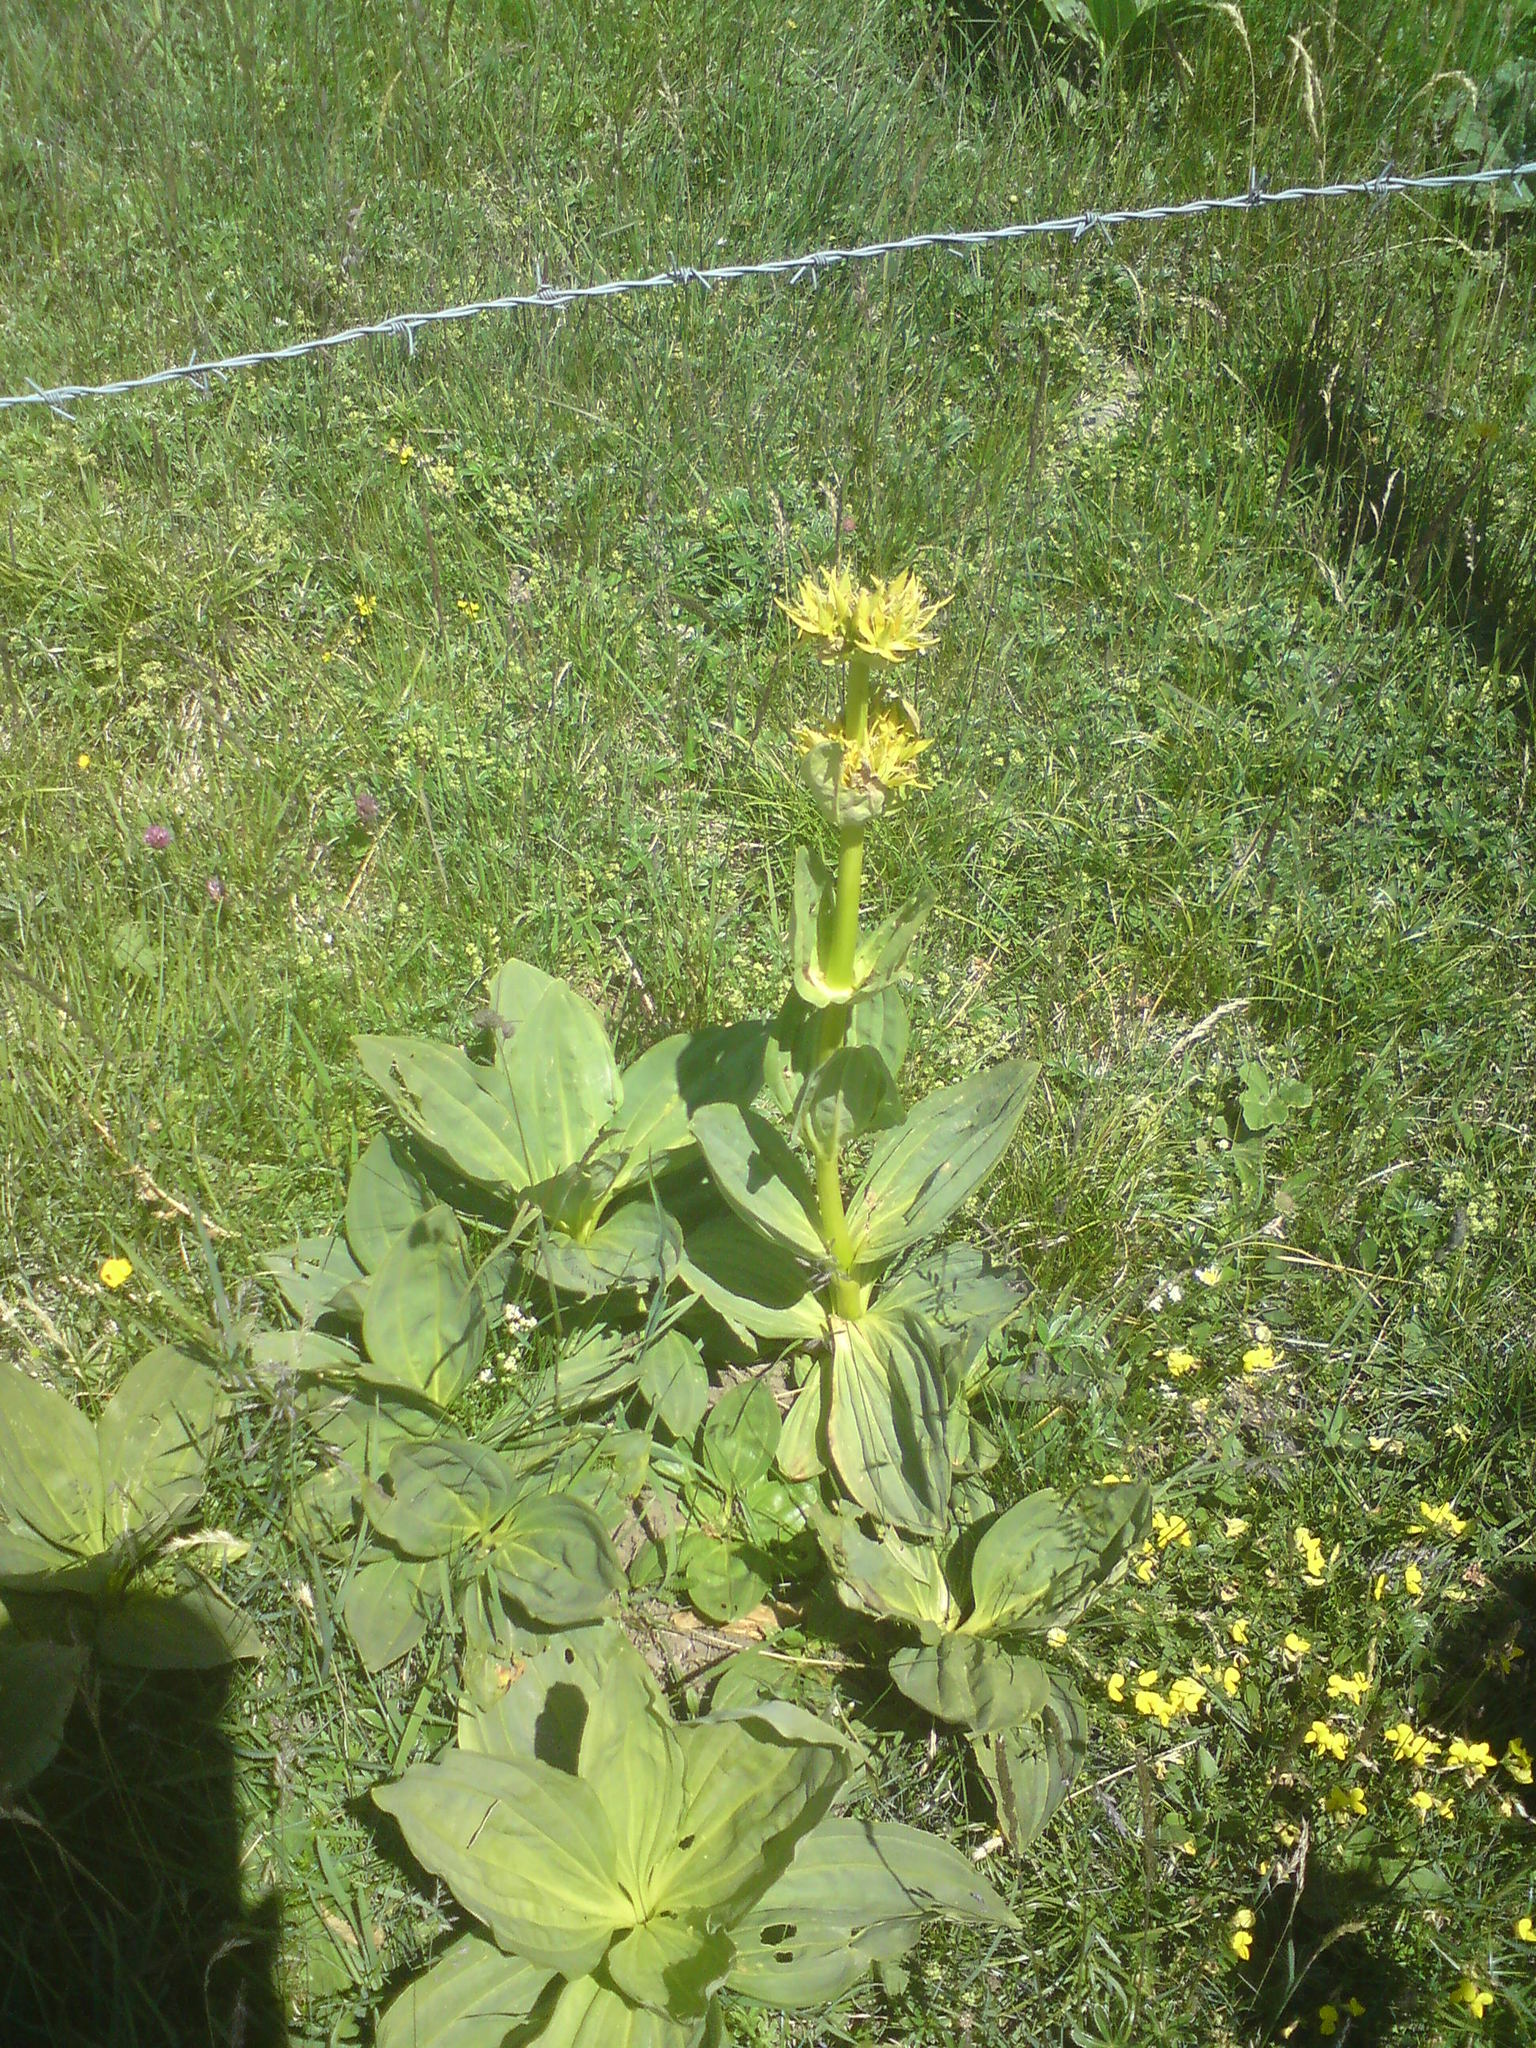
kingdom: Plantae
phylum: Tracheophyta
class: Magnoliopsida
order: Gentianales
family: Gentianaceae
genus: Gentiana
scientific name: Gentiana lutea
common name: Great yellow gentian
